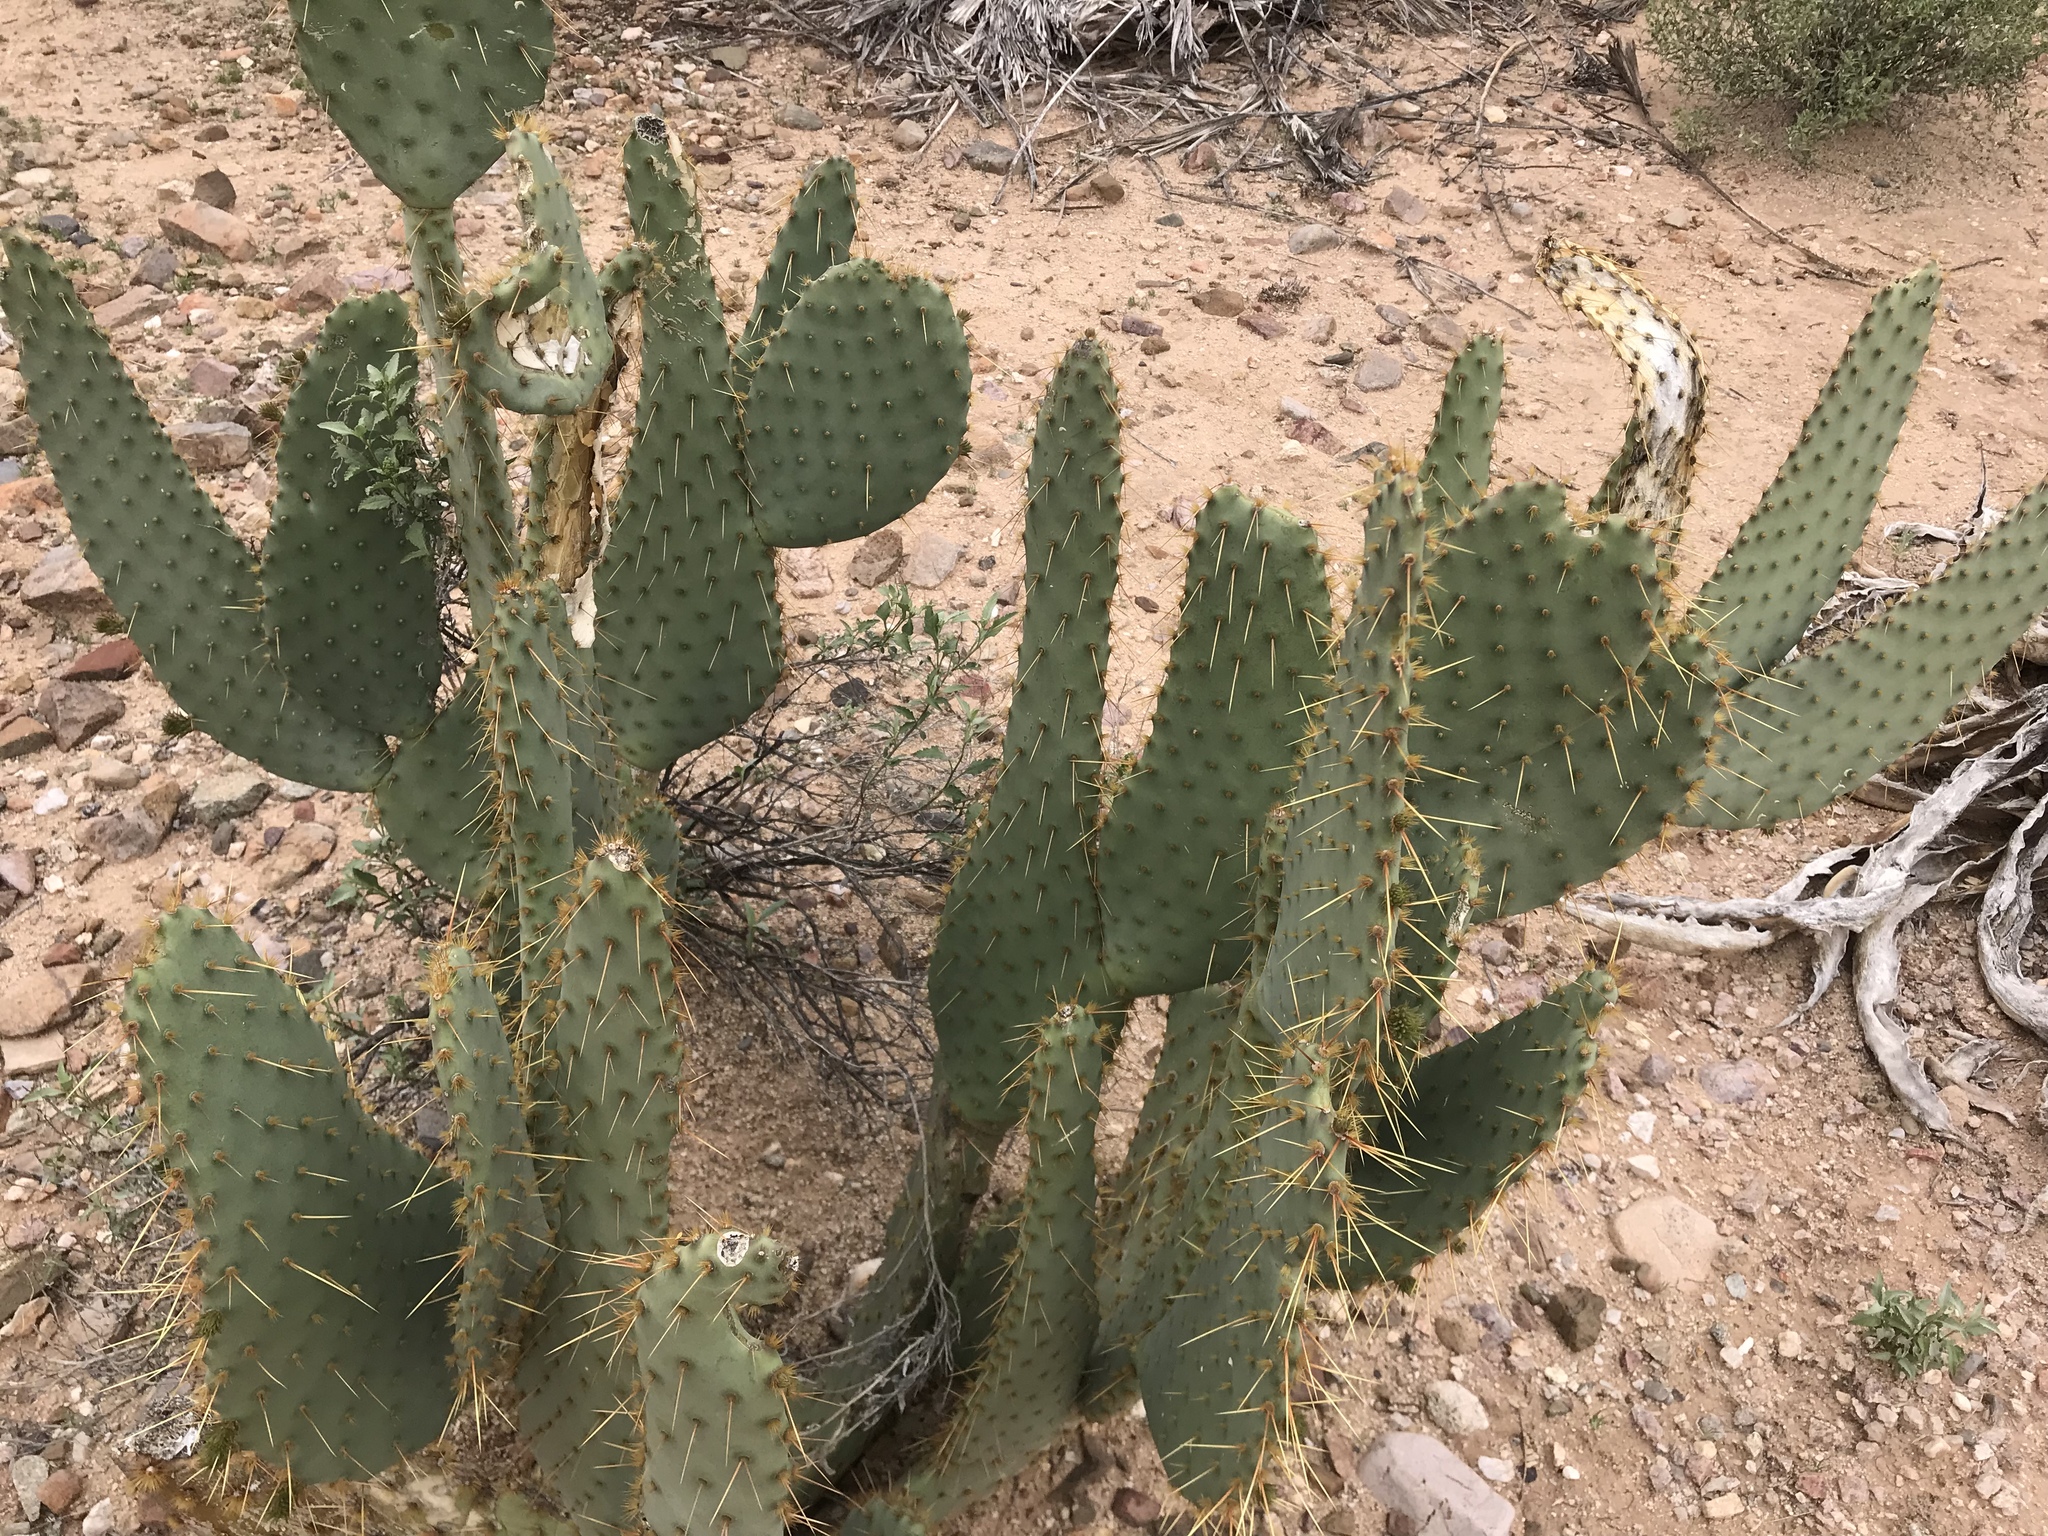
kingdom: Plantae
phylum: Tracheophyta
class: Magnoliopsida
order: Caryophyllales
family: Cactaceae
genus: Opuntia
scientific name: Opuntia engelmannii
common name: Cactus-apple
